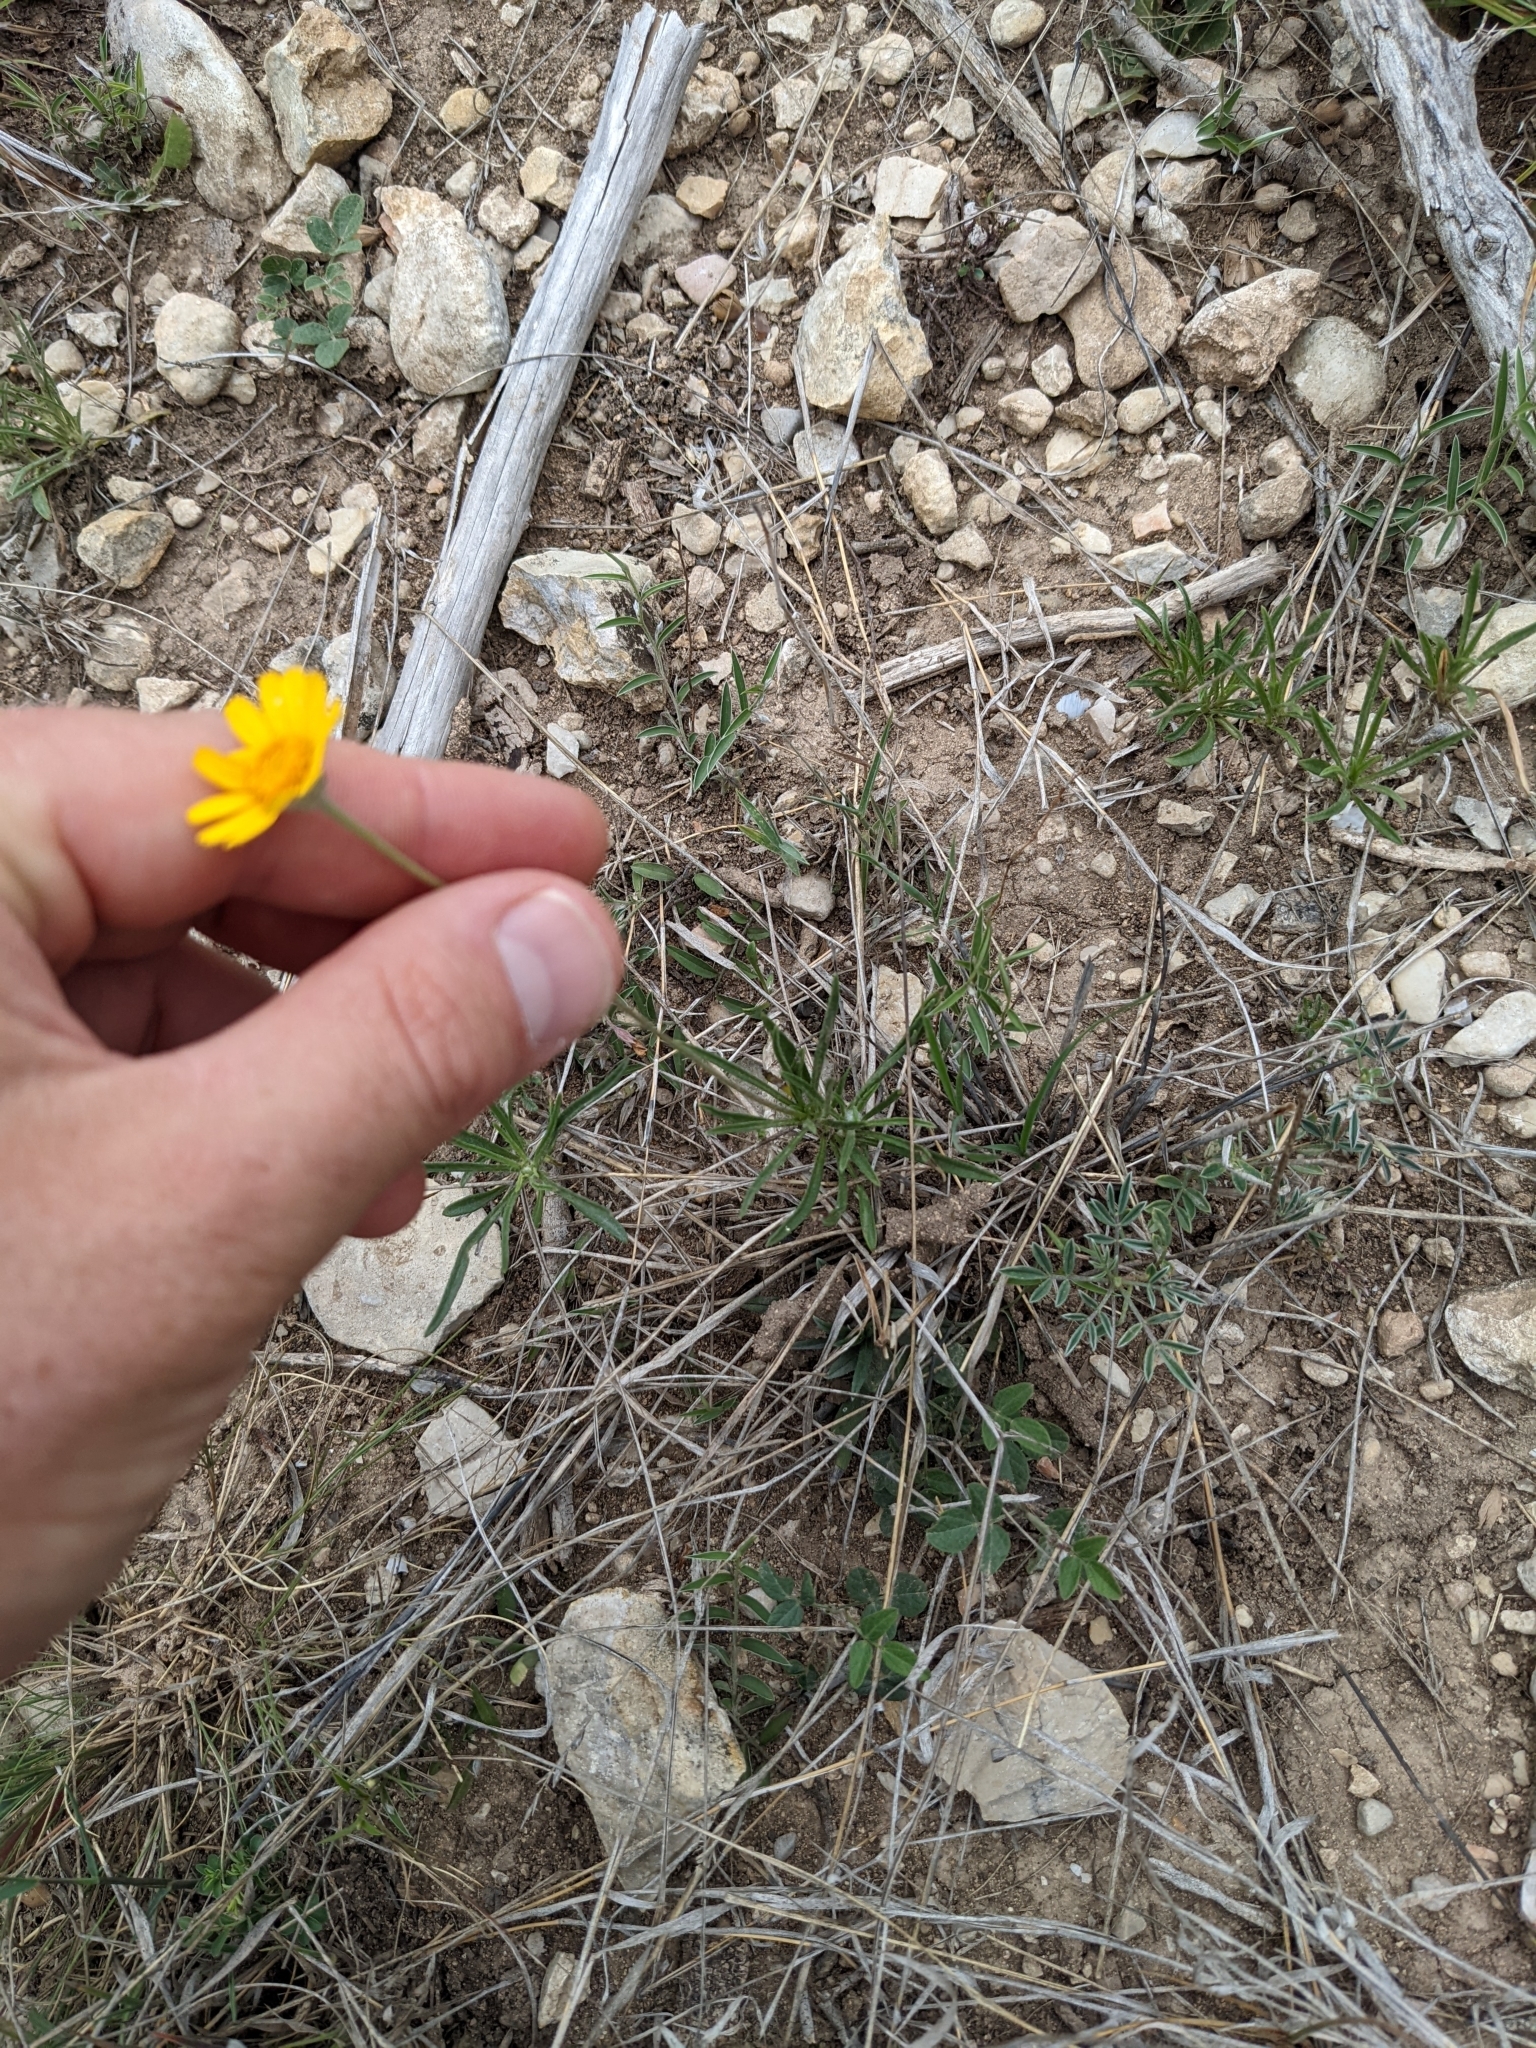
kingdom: Plantae
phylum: Tracheophyta
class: Magnoliopsida
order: Asterales
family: Asteraceae
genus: Tetraneuris
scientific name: Tetraneuris scaposa
